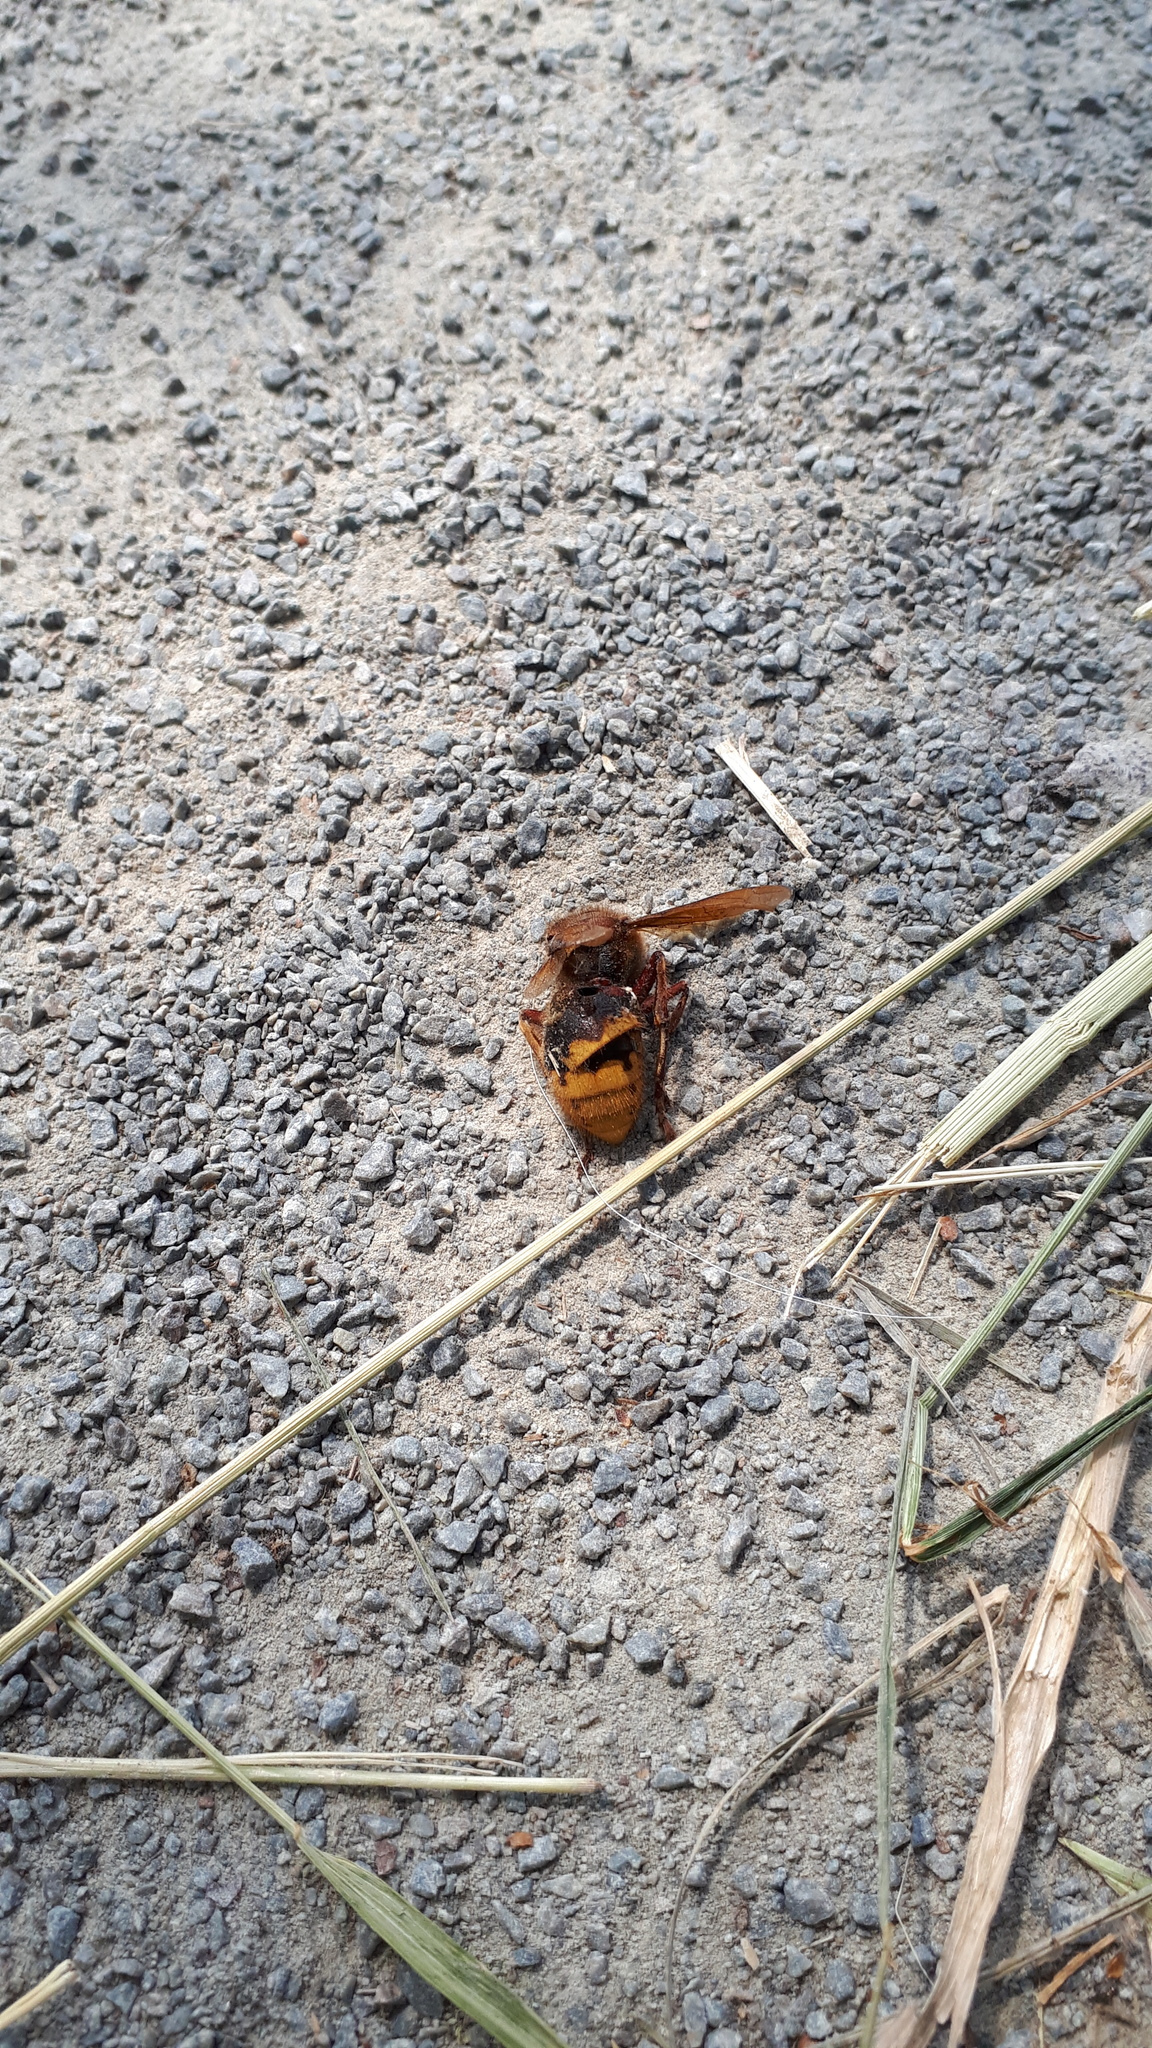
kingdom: Animalia
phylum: Arthropoda
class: Insecta
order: Hymenoptera
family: Vespidae
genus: Vespa
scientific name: Vespa crabro
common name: Hornet
